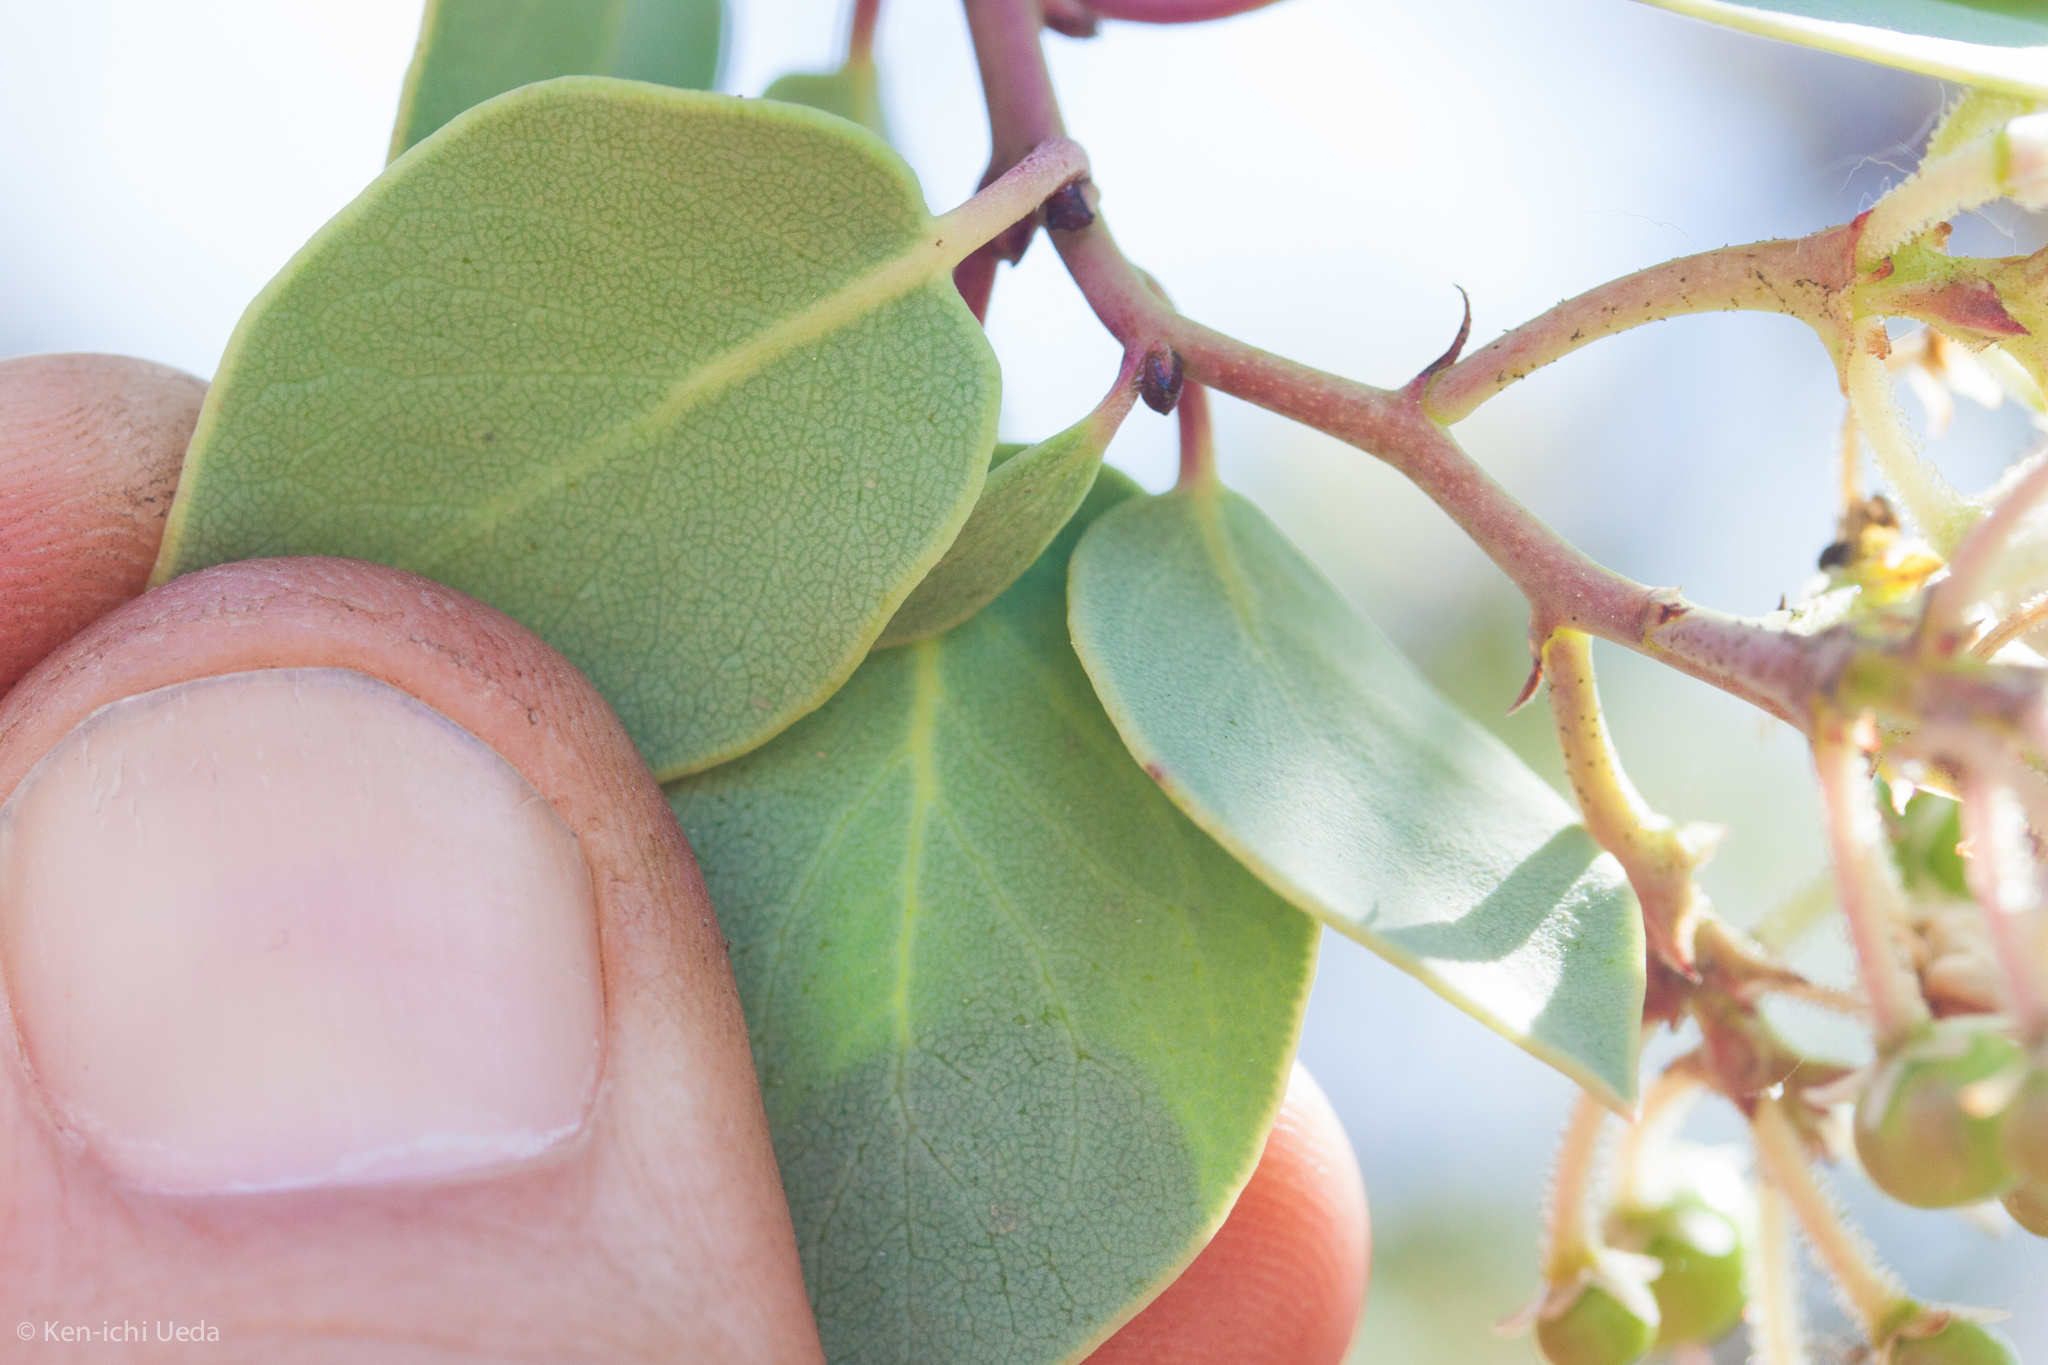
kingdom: Plantae
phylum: Tracheophyta
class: Magnoliopsida
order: Ericales
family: Ericaceae
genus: Arctostaphylos
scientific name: Arctostaphylos viscida
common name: White-leaf manzanita
